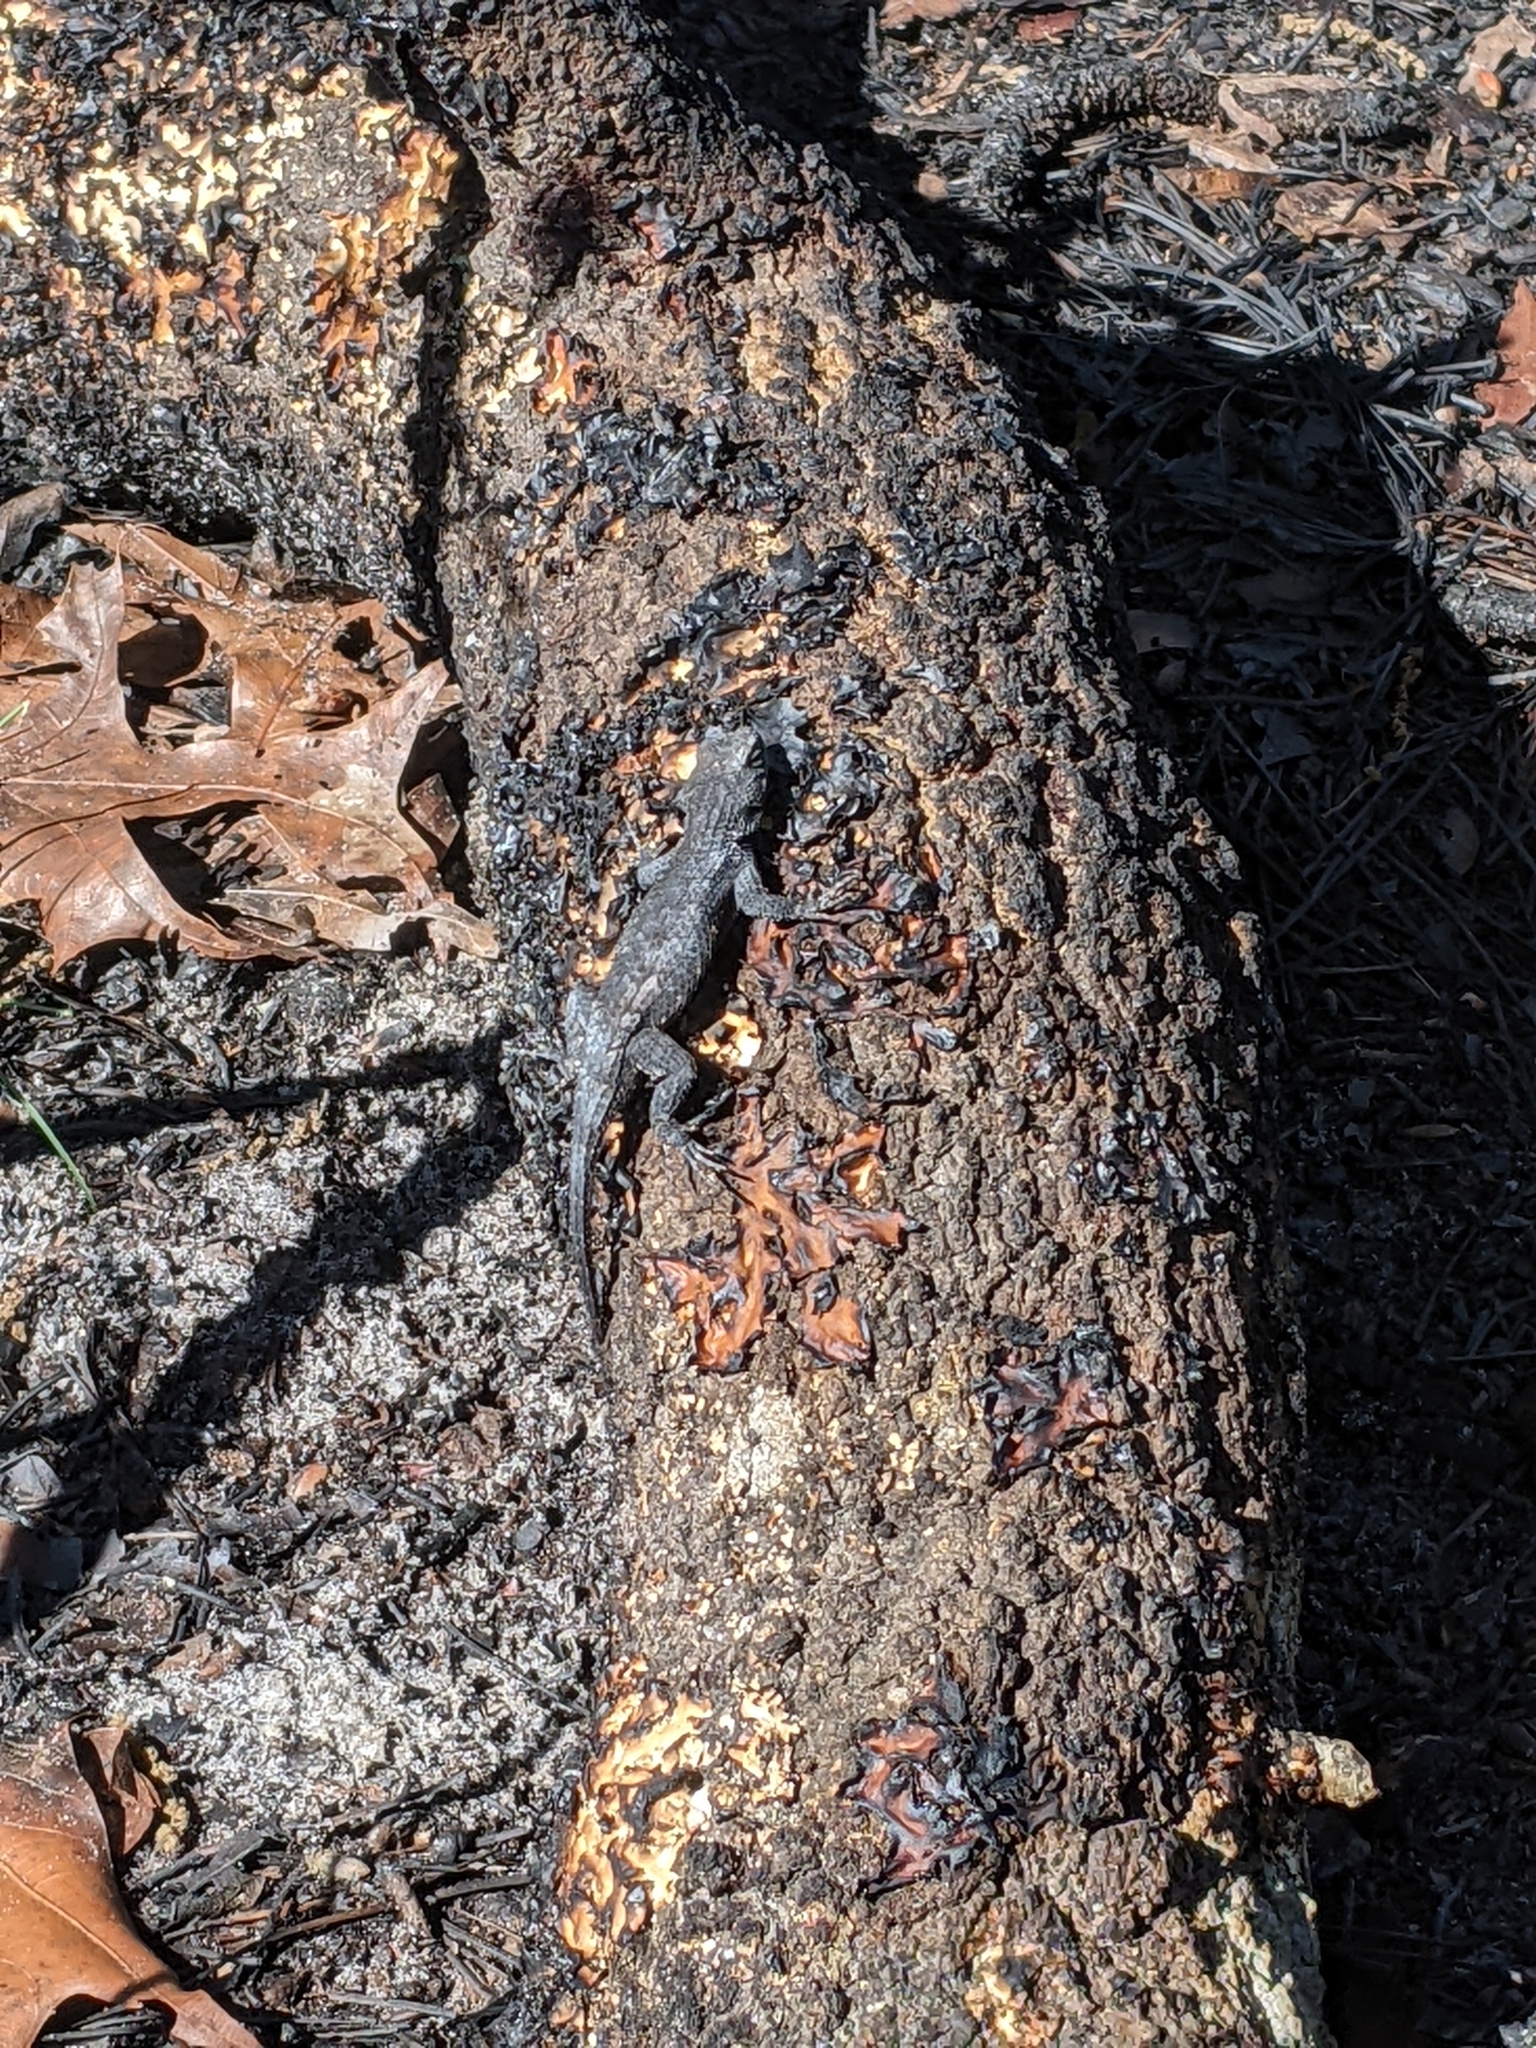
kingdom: Animalia
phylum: Chordata
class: Squamata
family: Phrynosomatidae
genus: Sceloporus
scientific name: Sceloporus undulatus
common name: Eastern fence lizard
